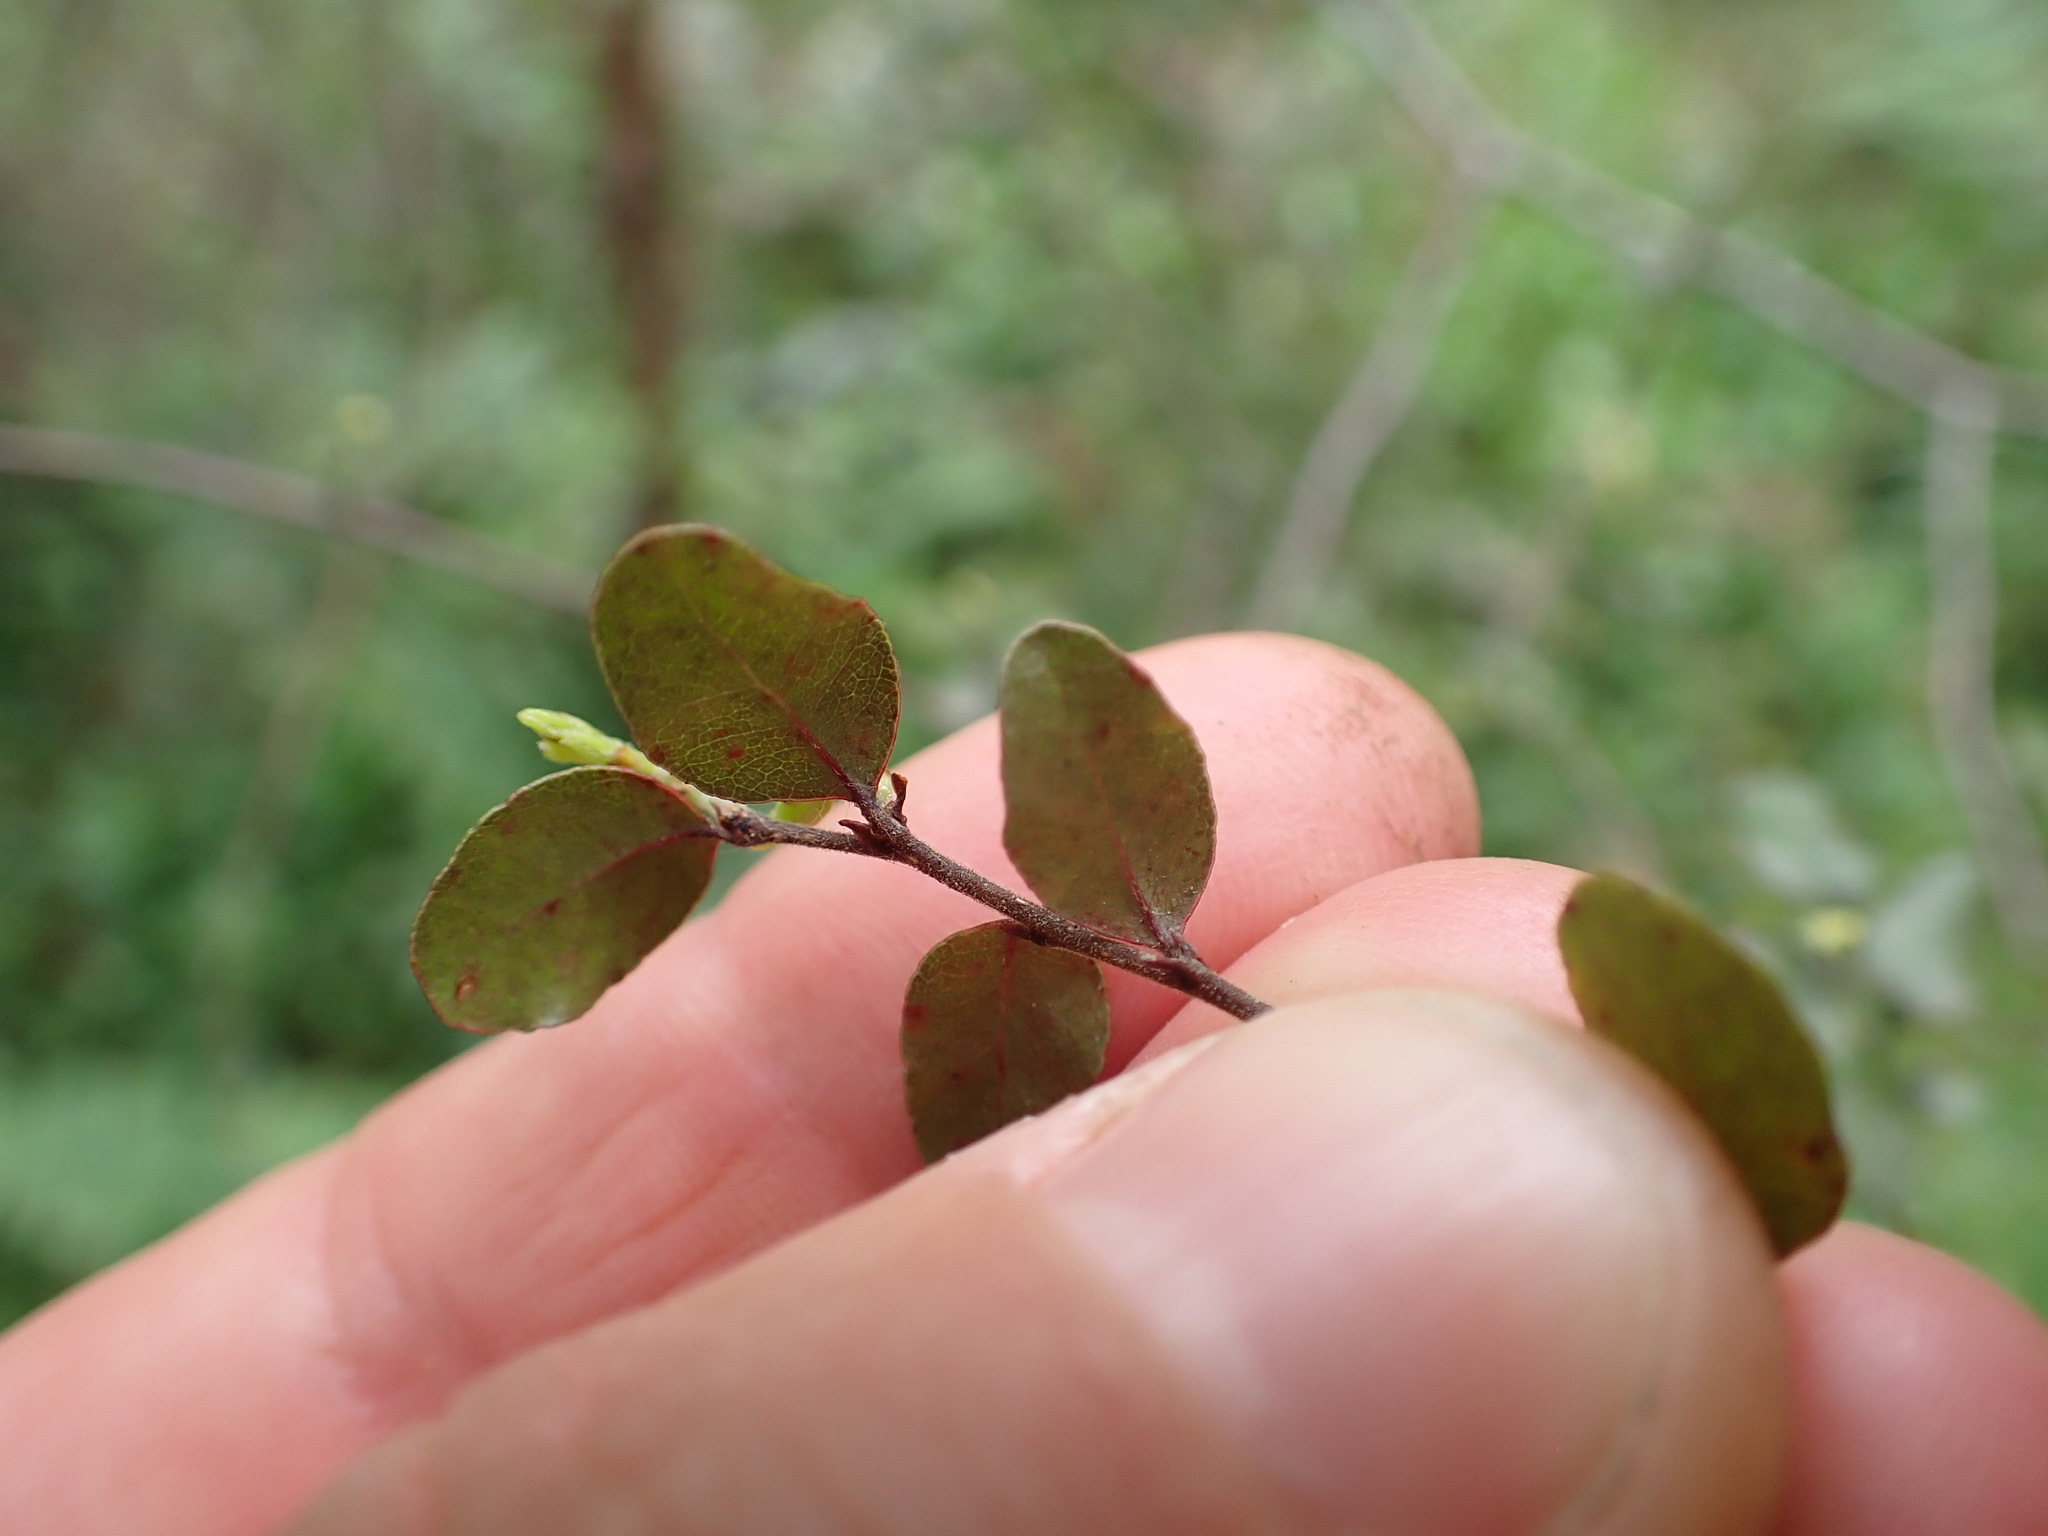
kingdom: Plantae
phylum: Tracheophyta
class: Magnoliopsida
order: Fagales
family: Nothofagaceae
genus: Nothofagus
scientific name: Nothofagus solandri
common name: Black beech
